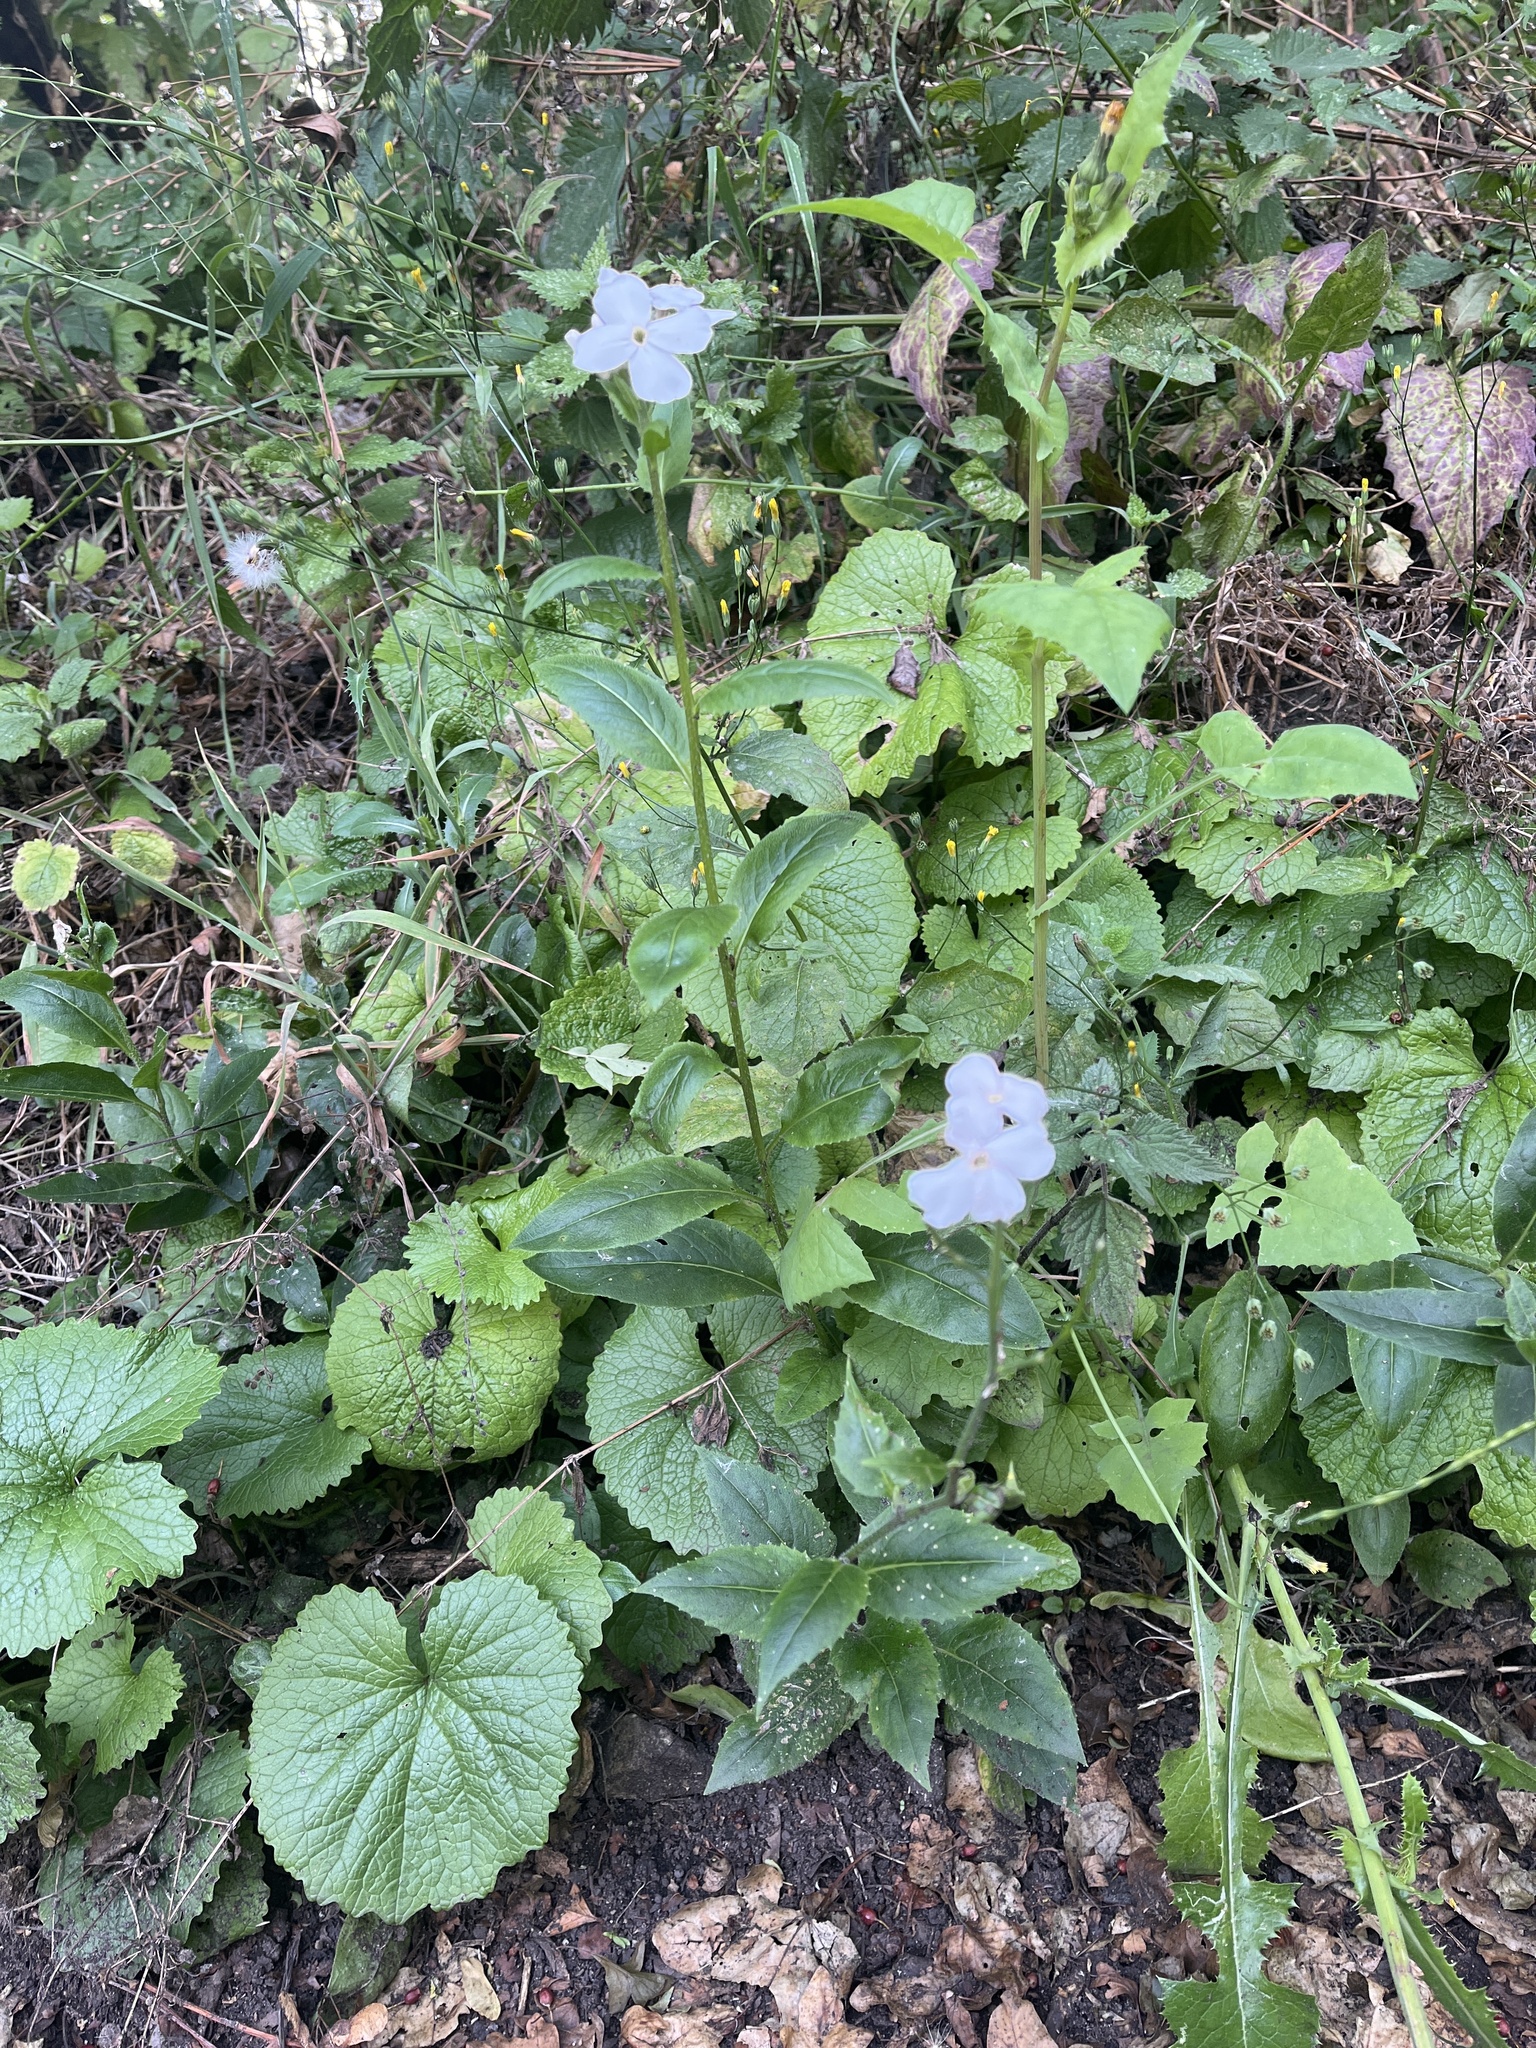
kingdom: Plantae
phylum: Tracheophyta
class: Magnoliopsida
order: Brassicales
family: Brassicaceae
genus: Hesperis
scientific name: Hesperis matronalis
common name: Dame's-violet
